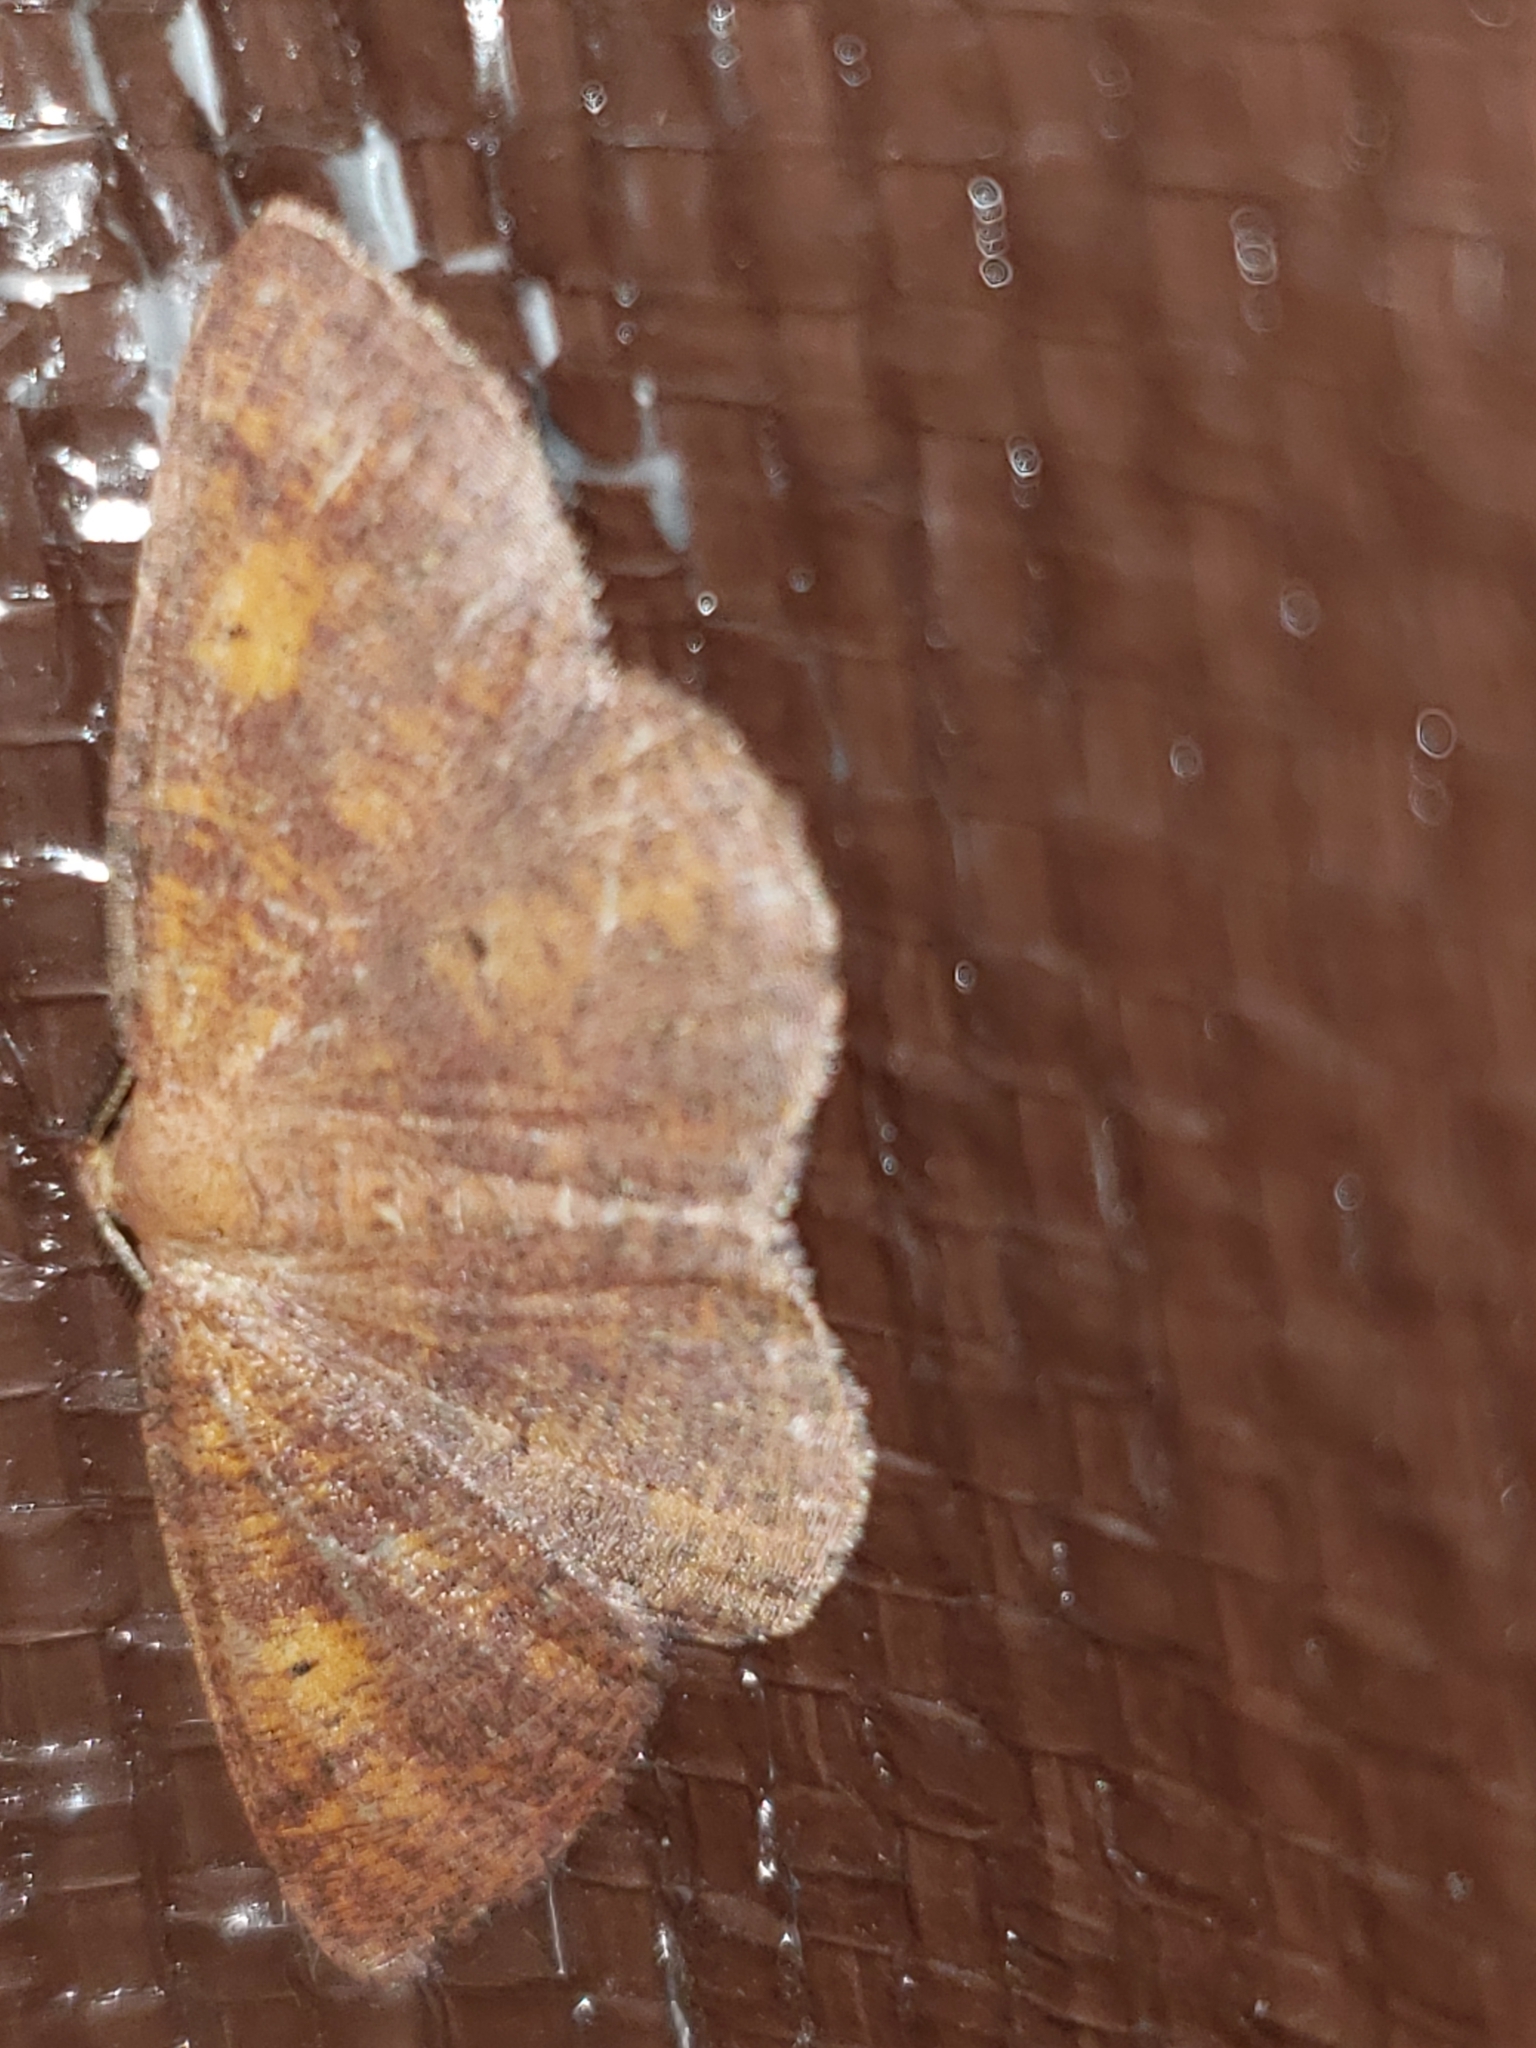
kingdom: Animalia
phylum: Arthropoda
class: Insecta
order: Lepidoptera
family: Geometridae
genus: Ilexia
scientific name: Ilexia intractata
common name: Black-dotted ruddy moth
